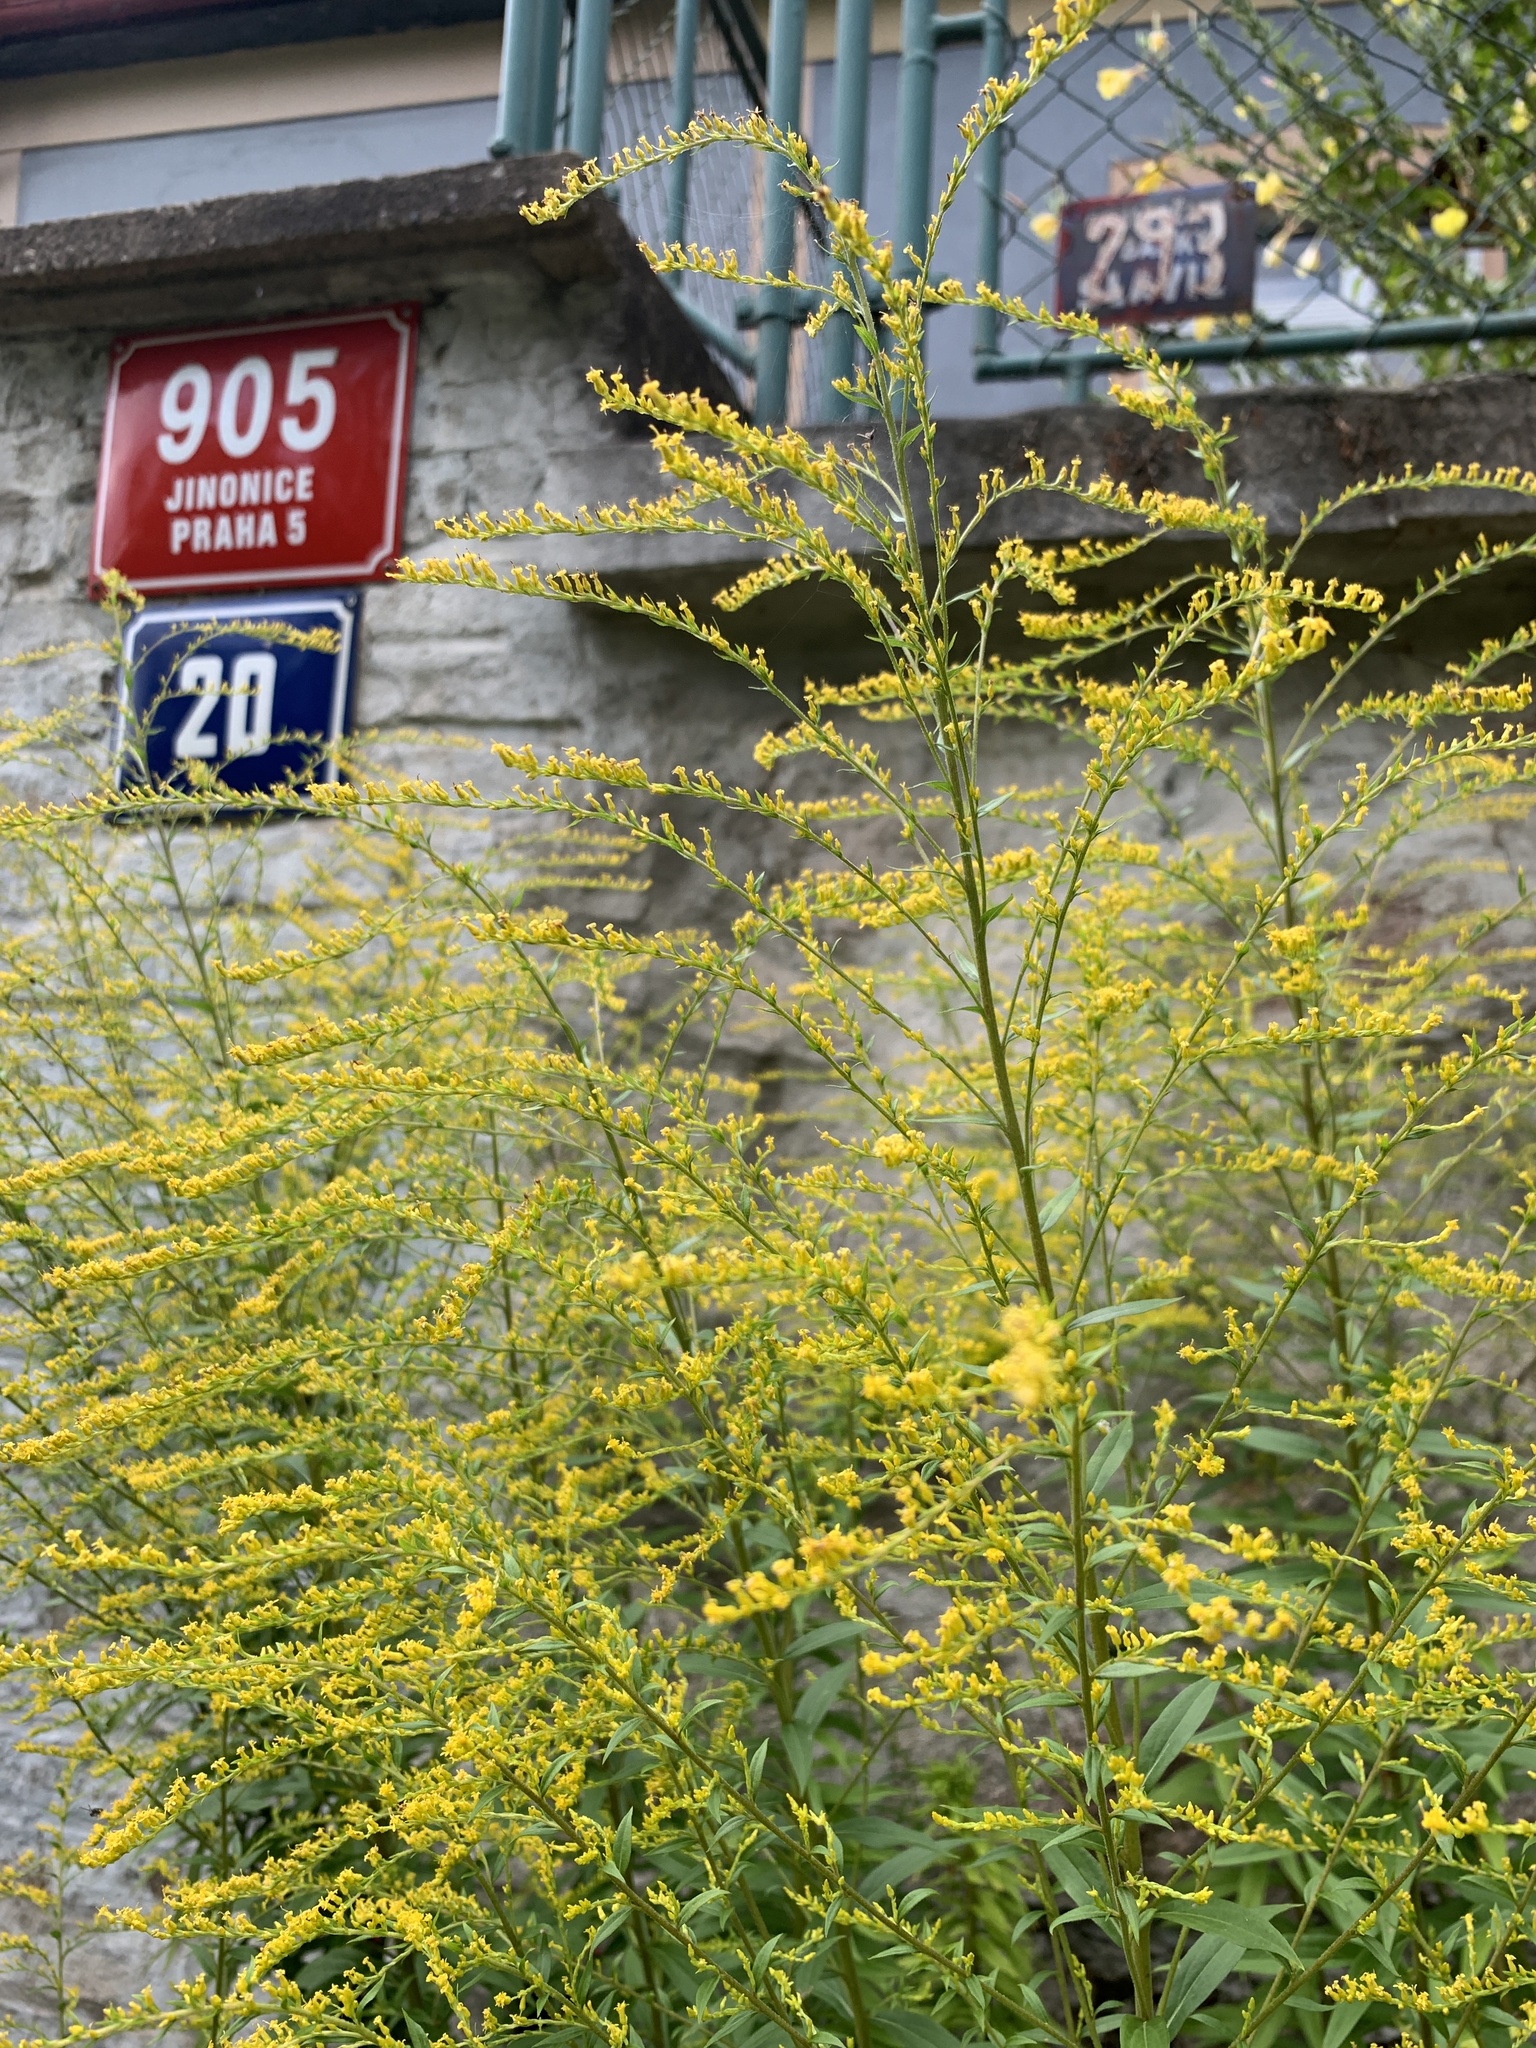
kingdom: Plantae
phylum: Tracheophyta
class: Magnoliopsida
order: Asterales
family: Asteraceae
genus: Solidago
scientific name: Solidago canadensis
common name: Canada goldenrod
